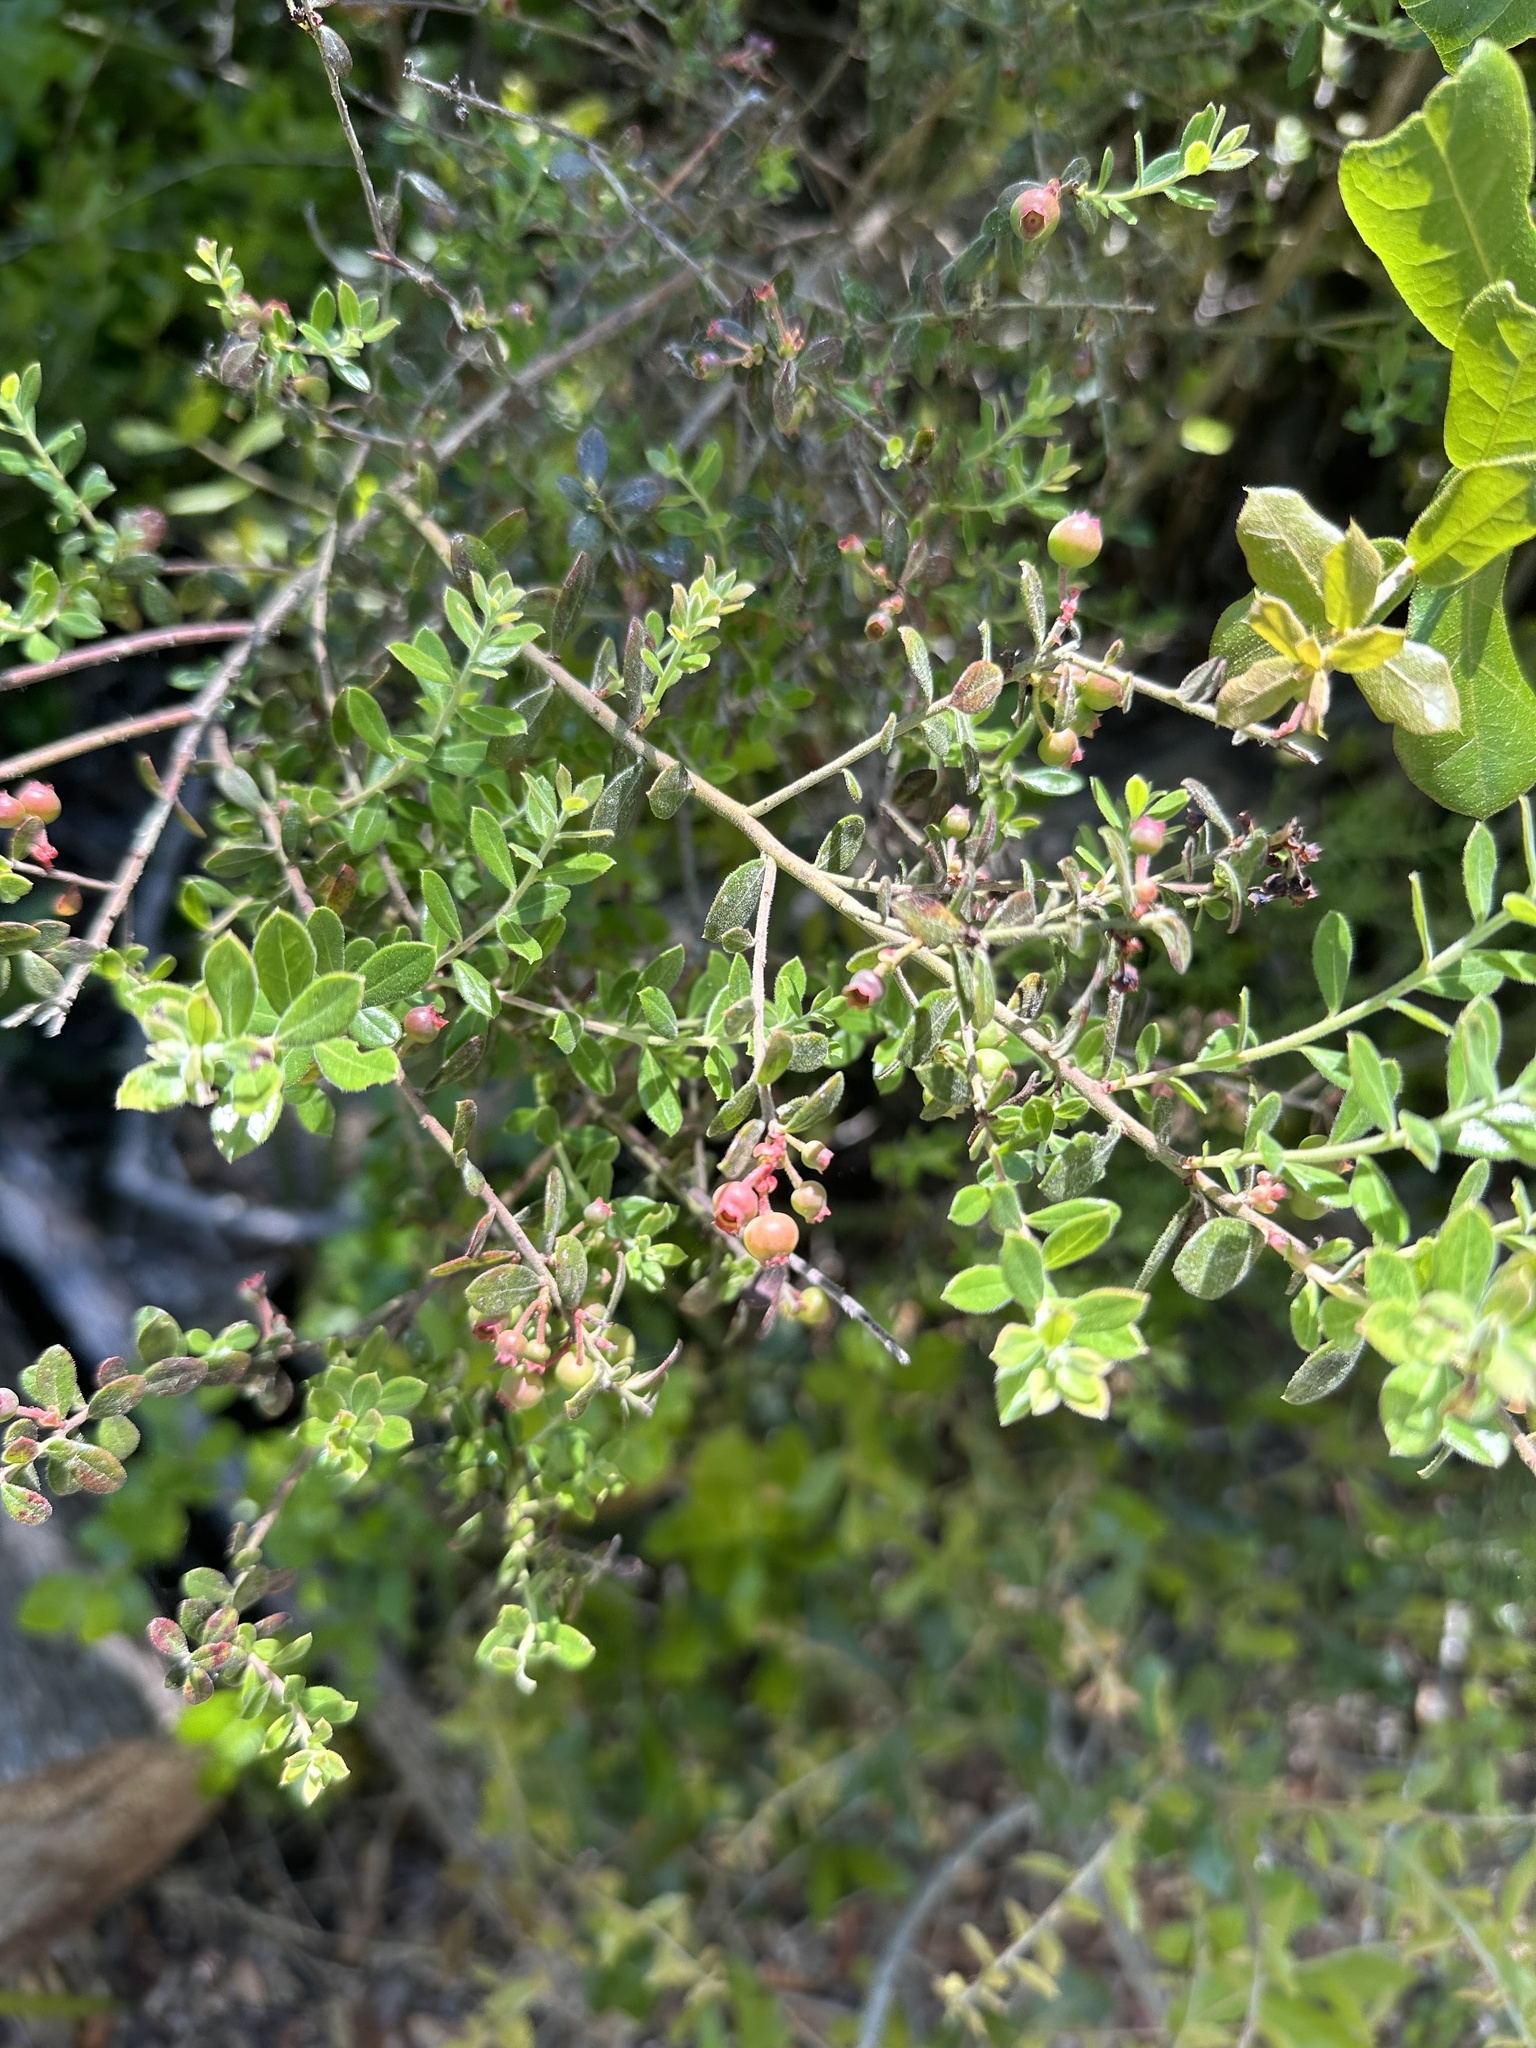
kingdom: Plantae
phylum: Tracheophyta
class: Magnoliopsida
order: Ericales
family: Ericaceae
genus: Vaccinium
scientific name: Vaccinium myrsinites
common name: Evergreen blueberry
